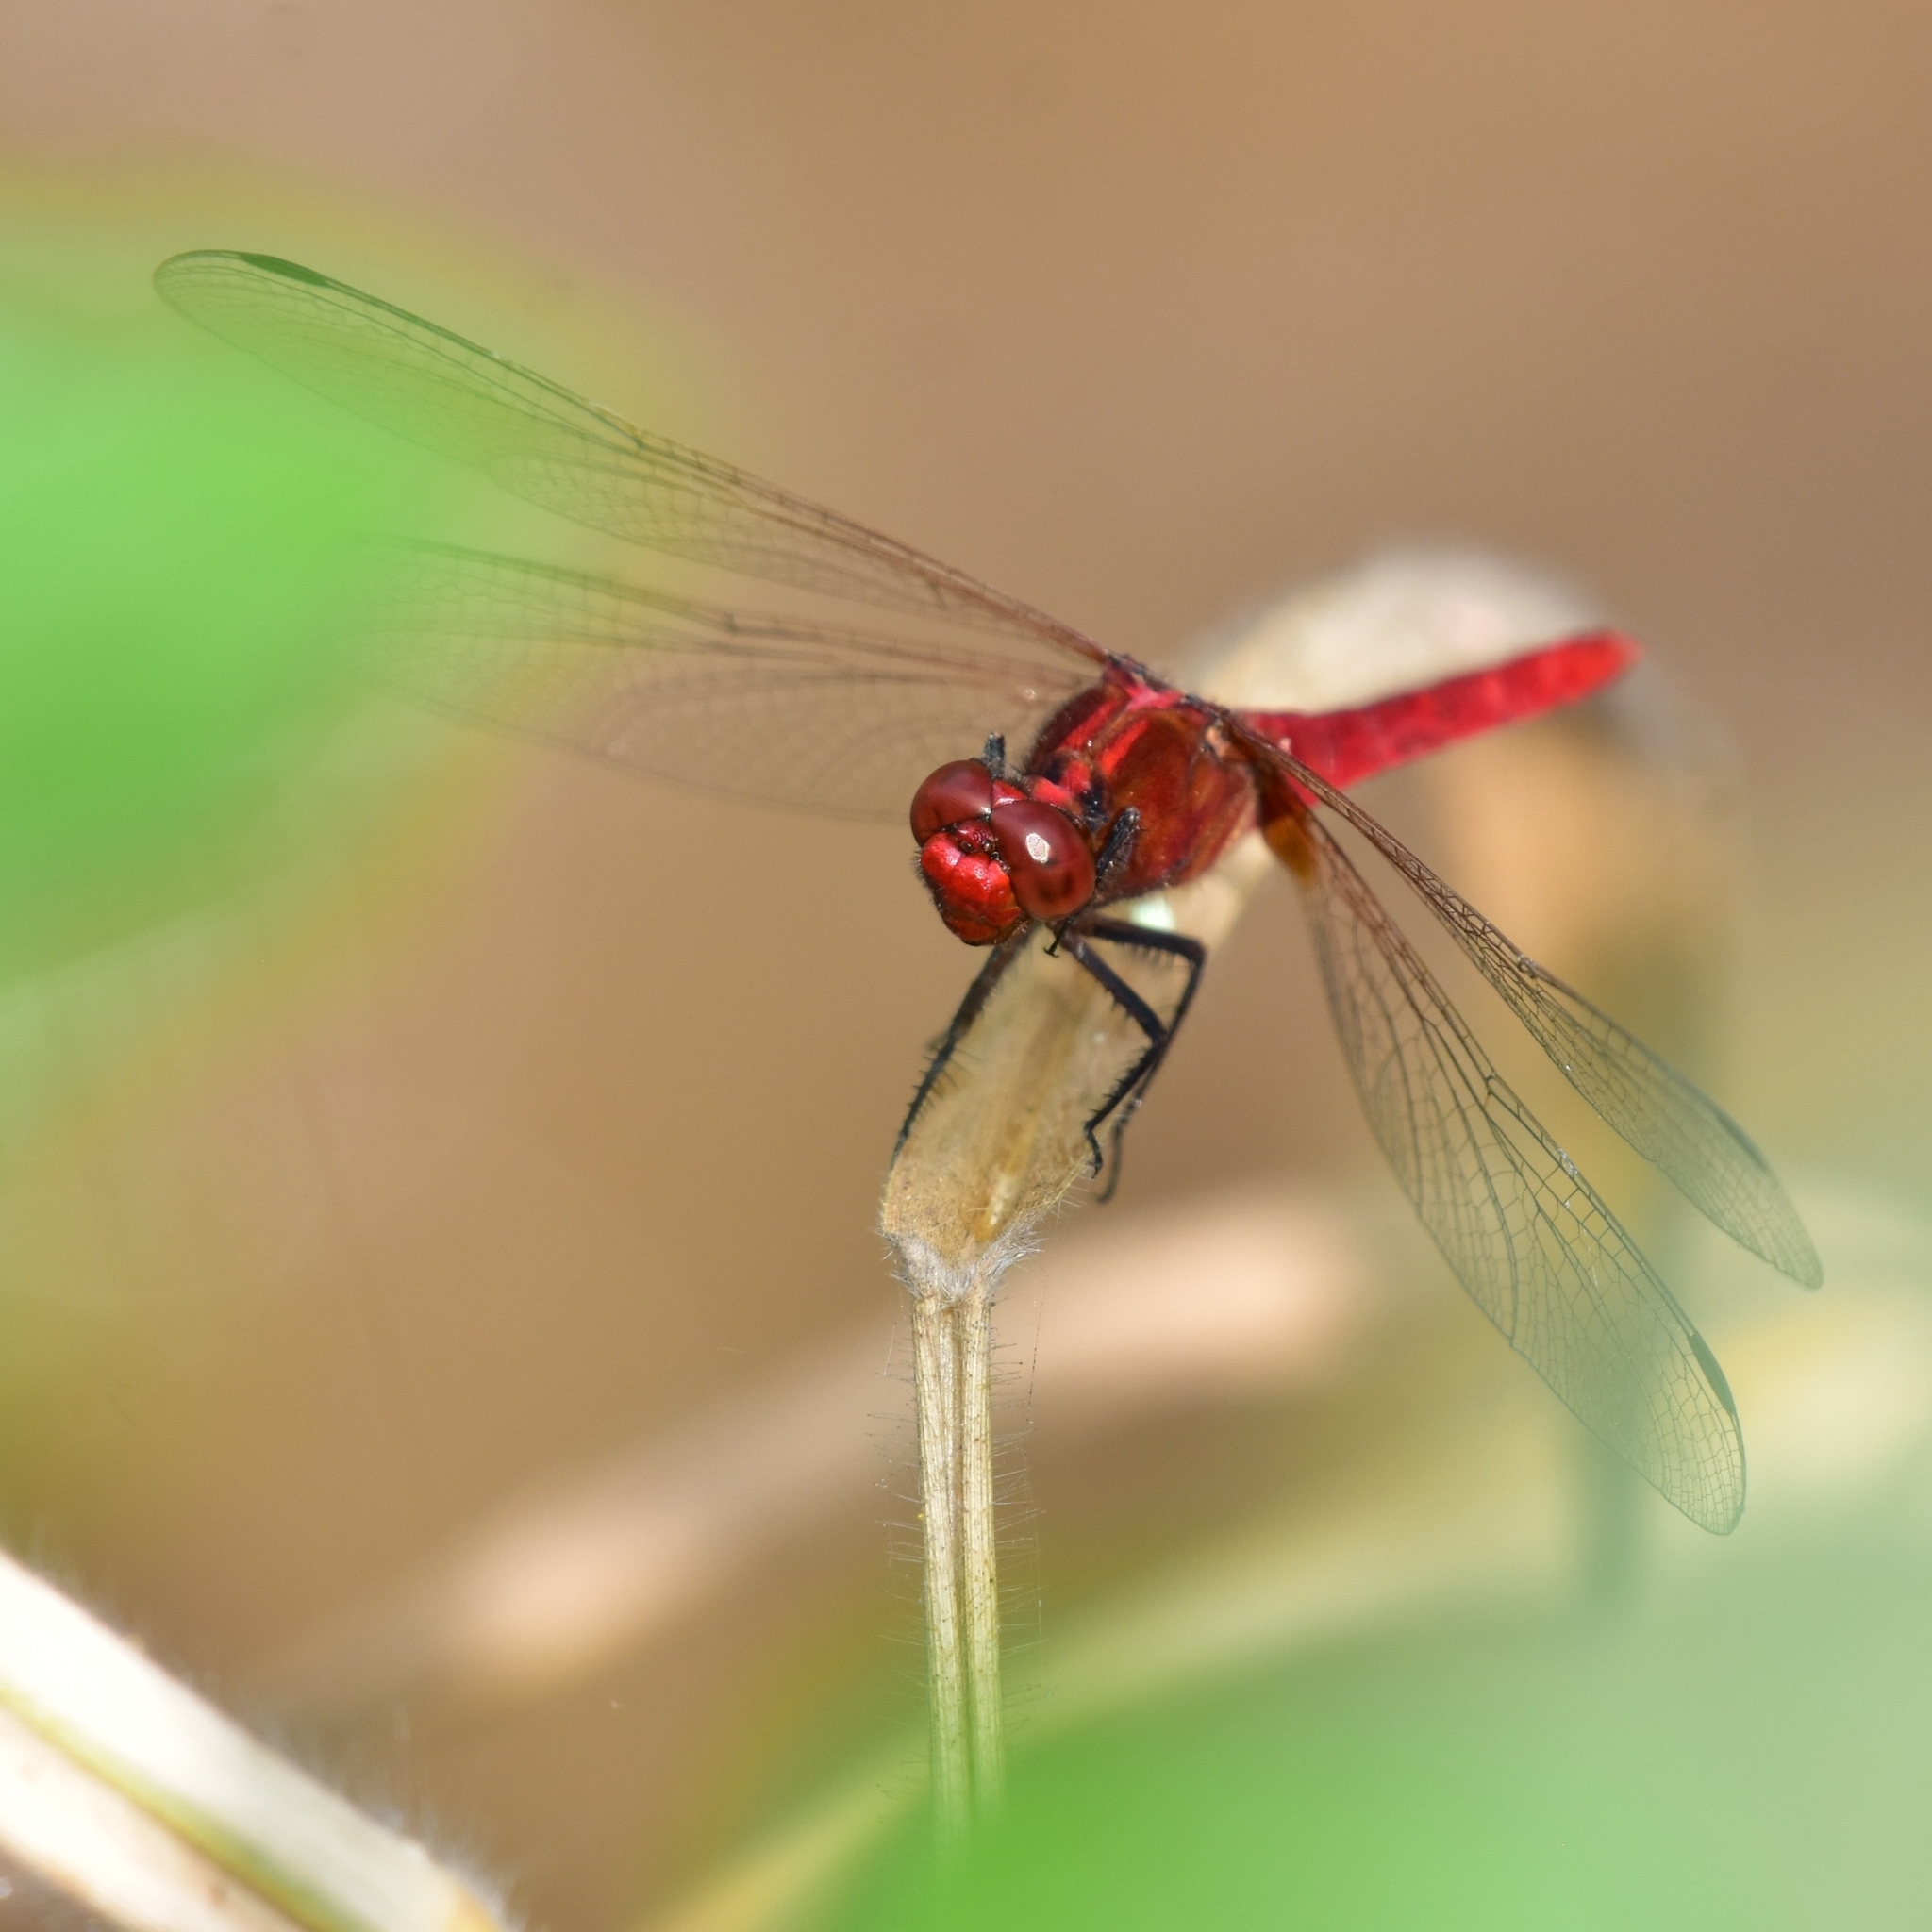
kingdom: Animalia
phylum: Arthropoda
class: Insecta
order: Odonata
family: Libellulidae
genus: Rhodothemis
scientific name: Rhodothemis rufa
